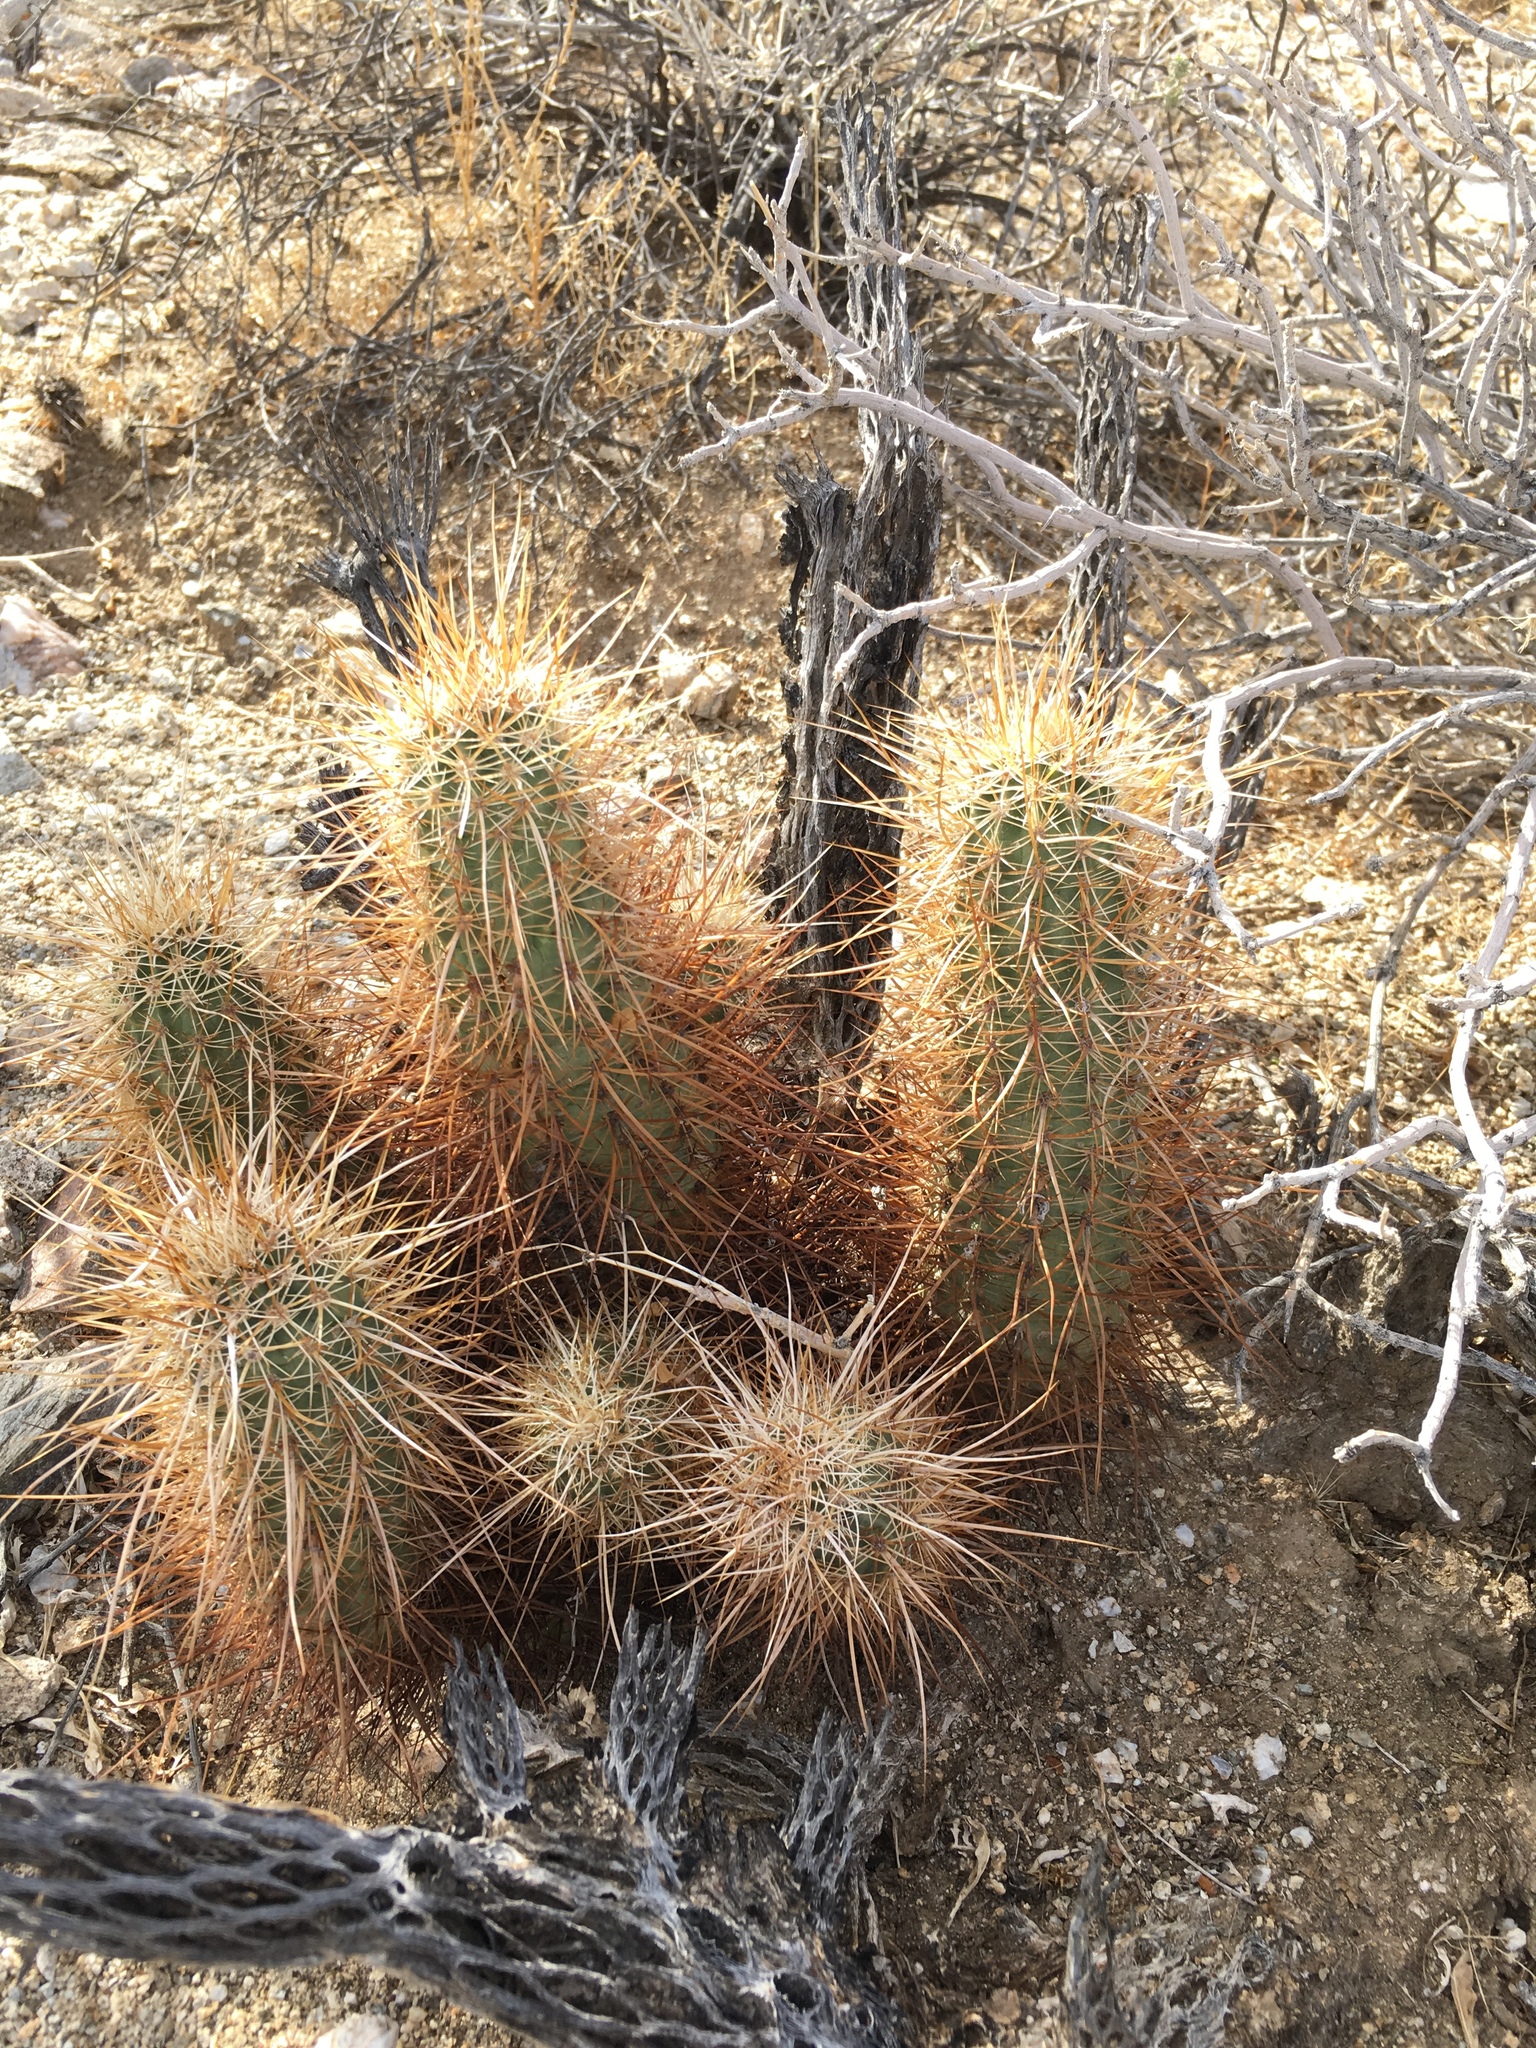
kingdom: Plantae
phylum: Tracheophyta
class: Magnoliopsida
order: Caryophyllales
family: Cactaceae
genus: Echinocereus
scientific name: Echinocereus engelmannii
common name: Engelmann's hedgehog cactus
